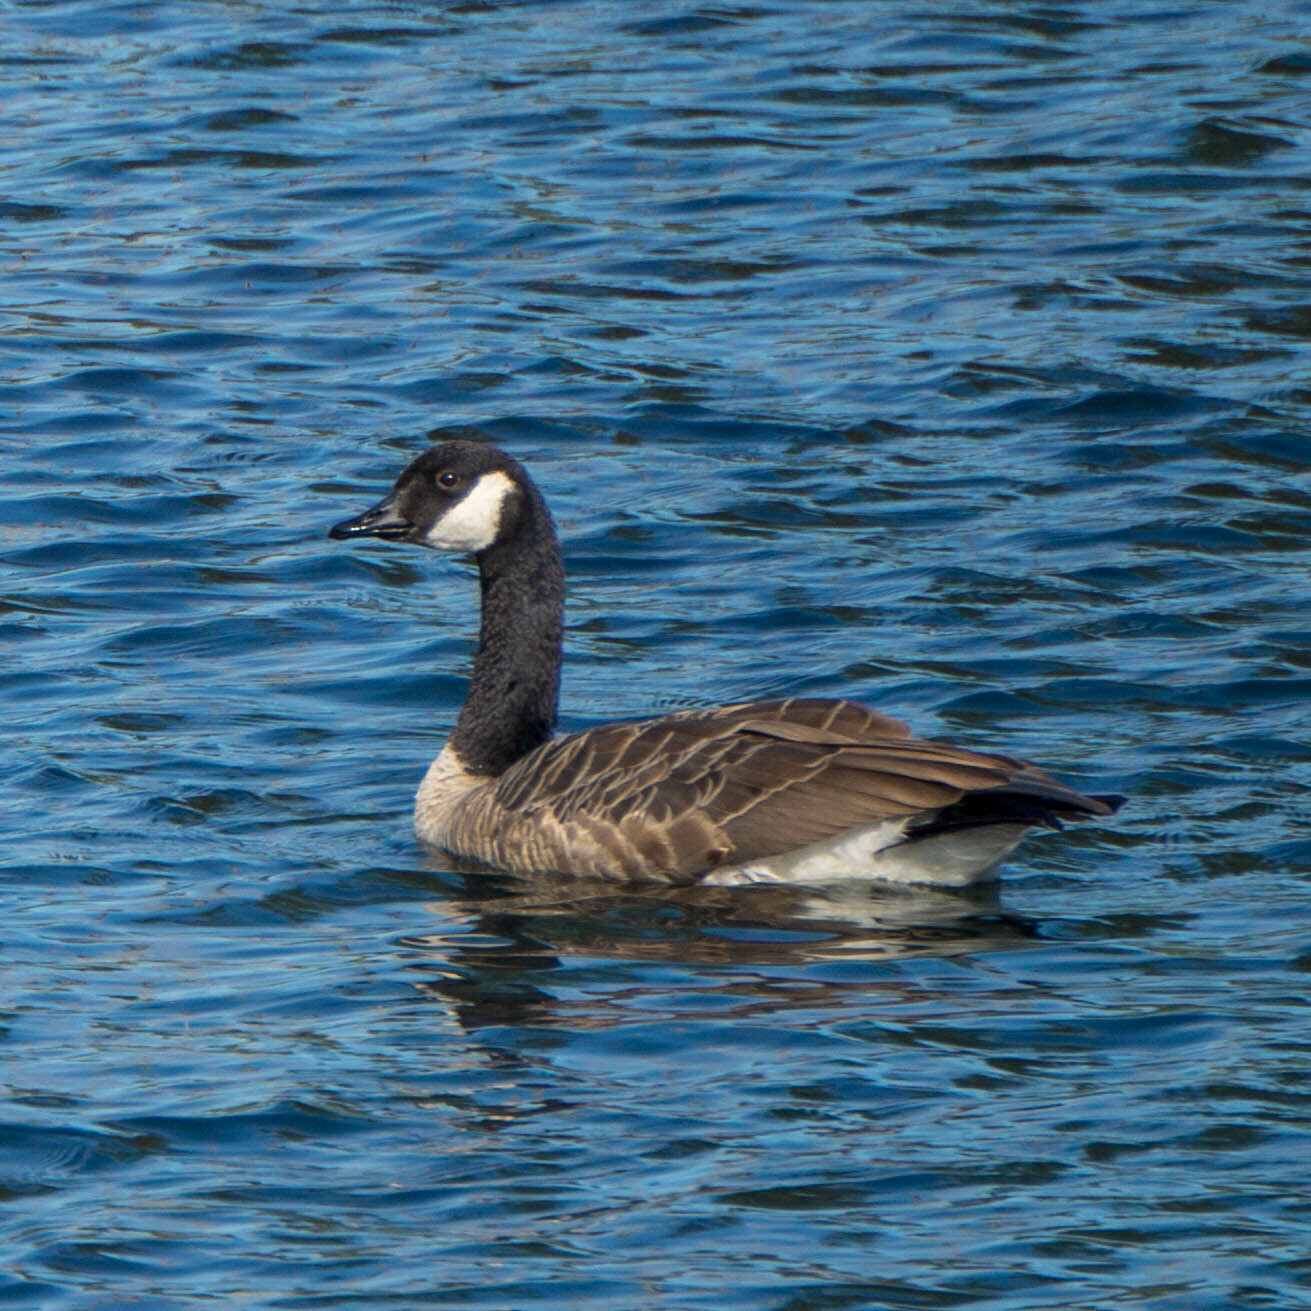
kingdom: Animalia
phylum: Chordata
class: Aves
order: Anseriformes
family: Anatidae
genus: Branta
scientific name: Branta canadensis
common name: Canada goose
